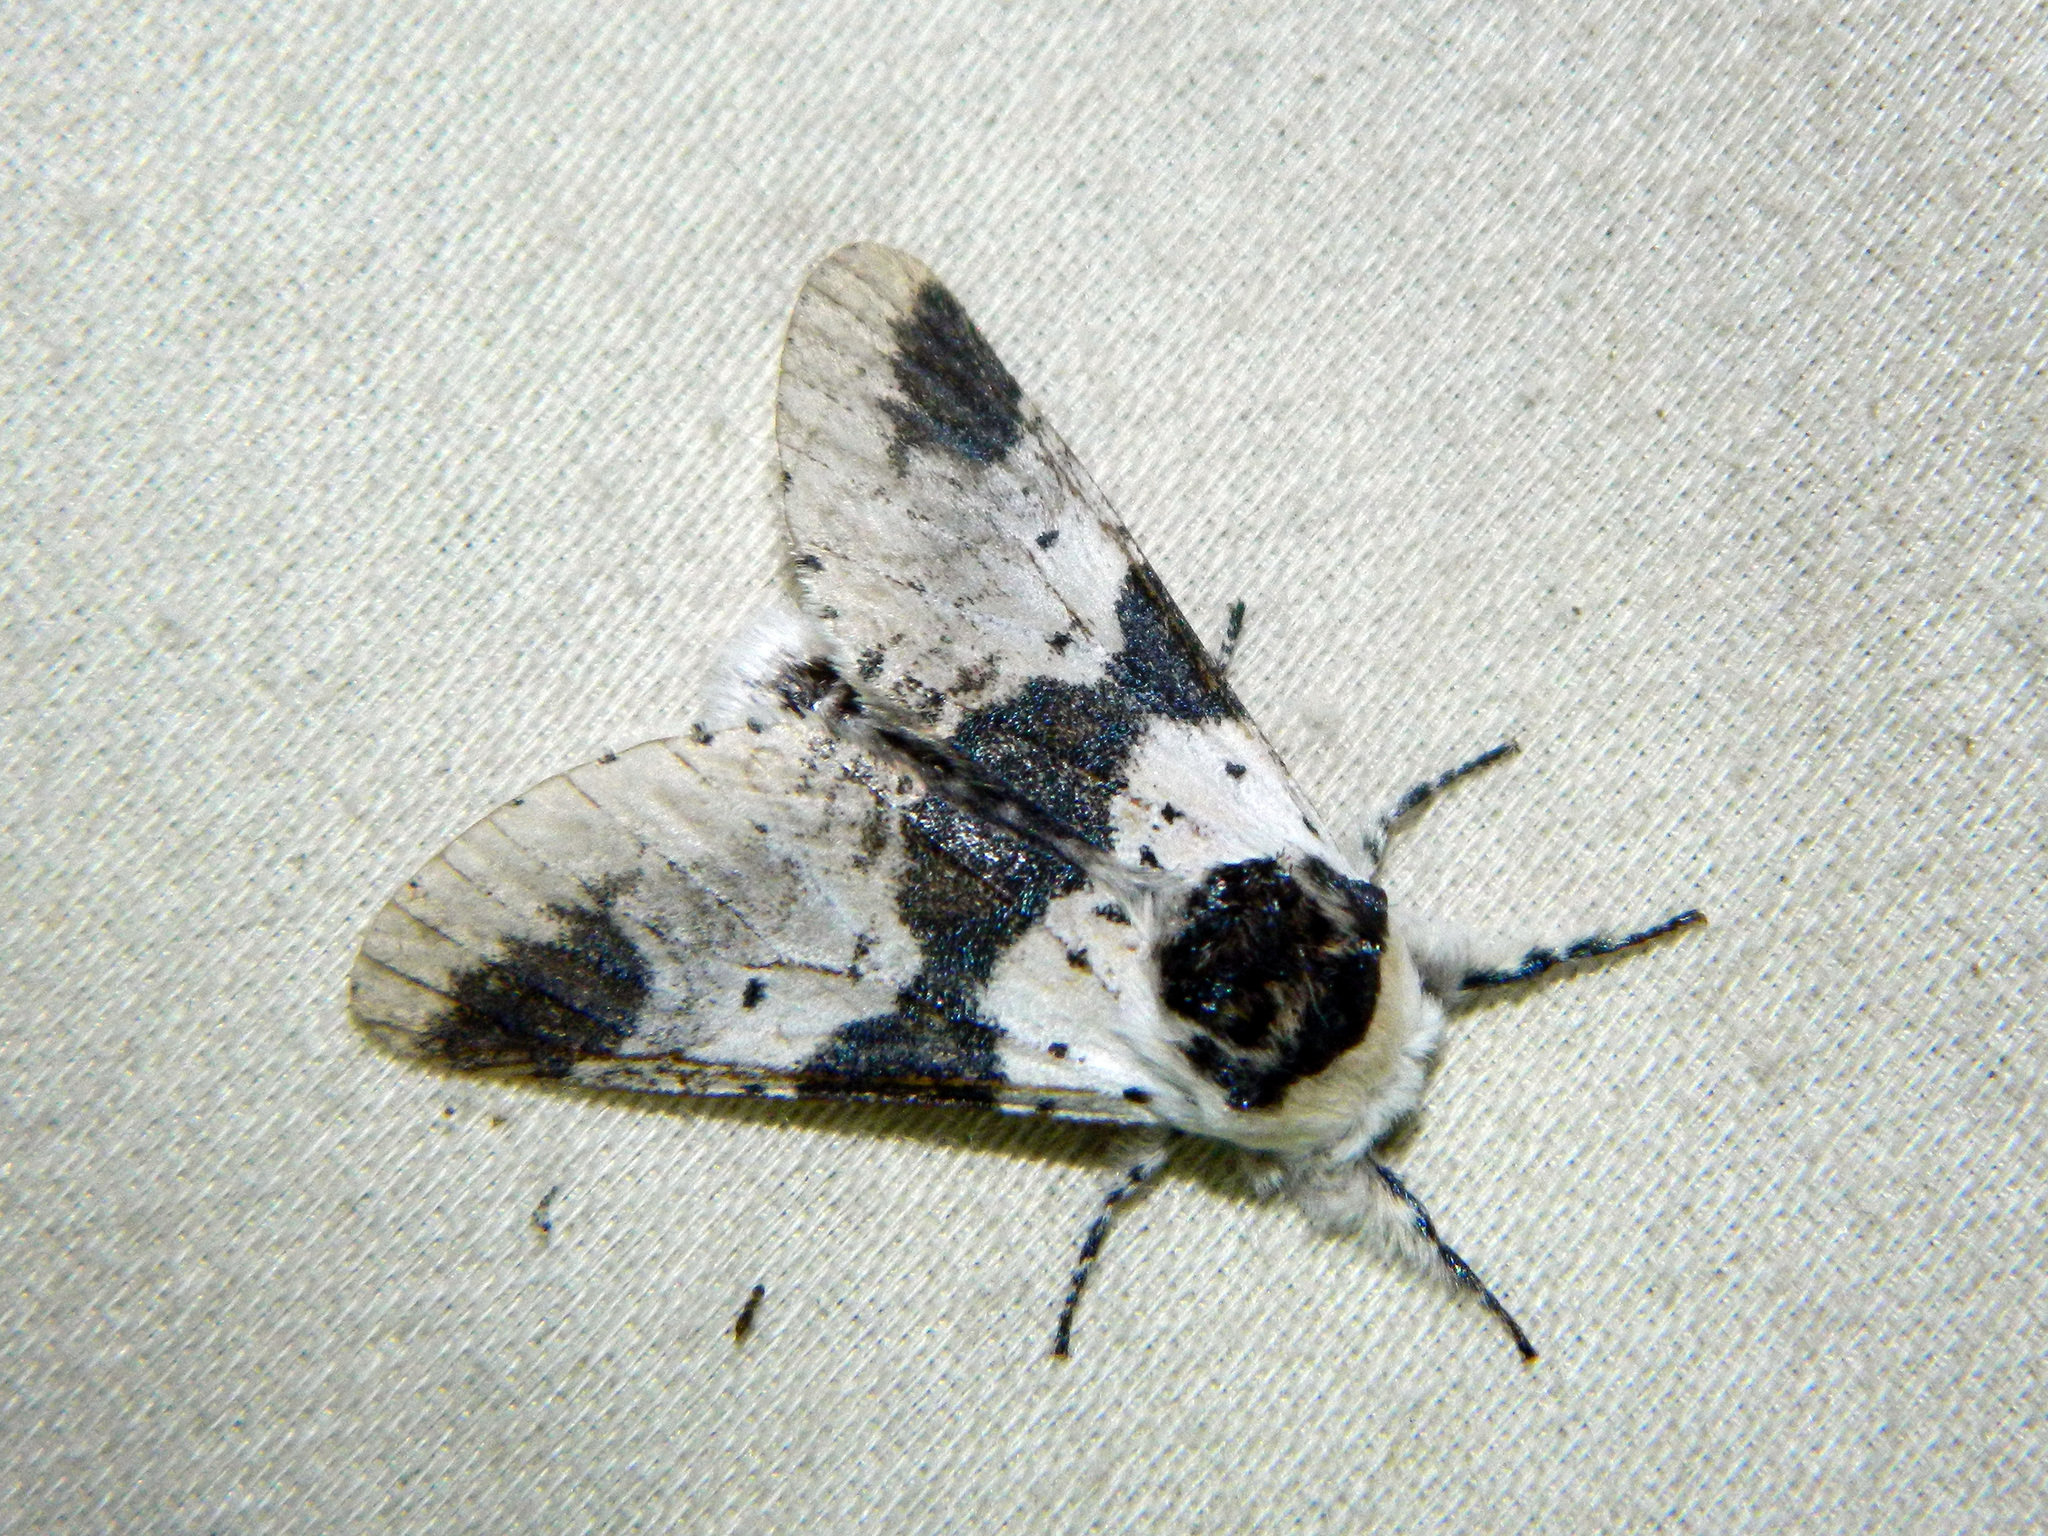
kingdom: Animalia
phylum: Arthropoda
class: Insecta
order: Lepidoptera
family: Notodontidae
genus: Furcula
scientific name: Furcula modesta
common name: Modest furcula moth
